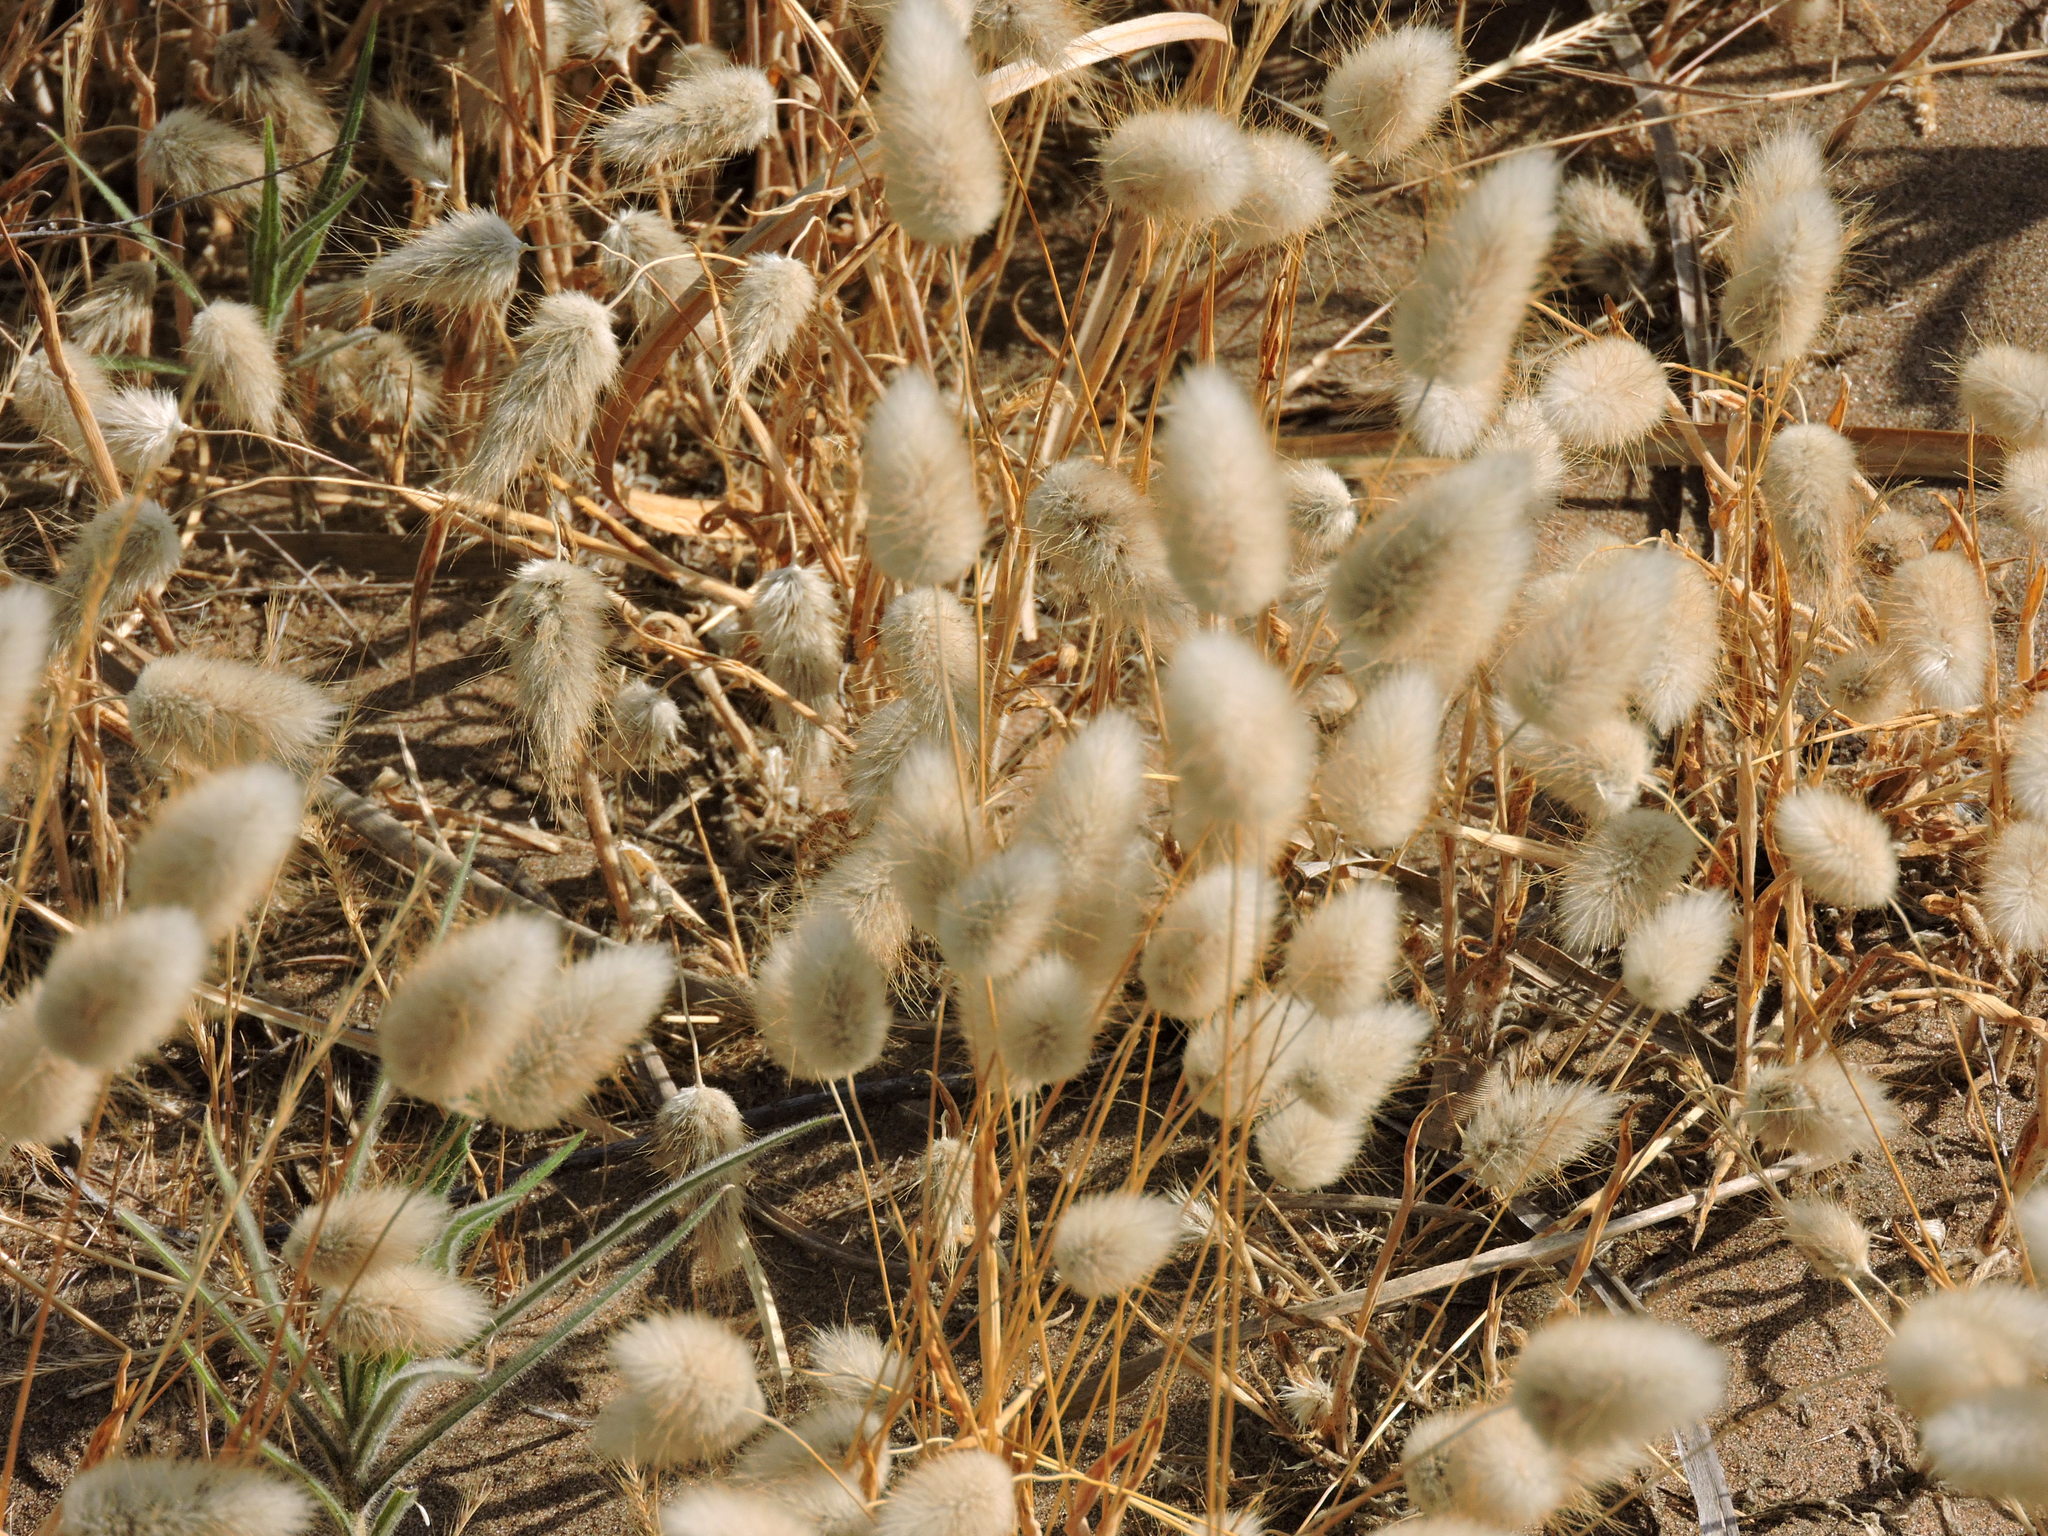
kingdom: Plantae
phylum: Tracheophyta
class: Liliopsida
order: Poales
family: Poaceae
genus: Lagurus
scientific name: Lagurus ovatus
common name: Hare's-tail
